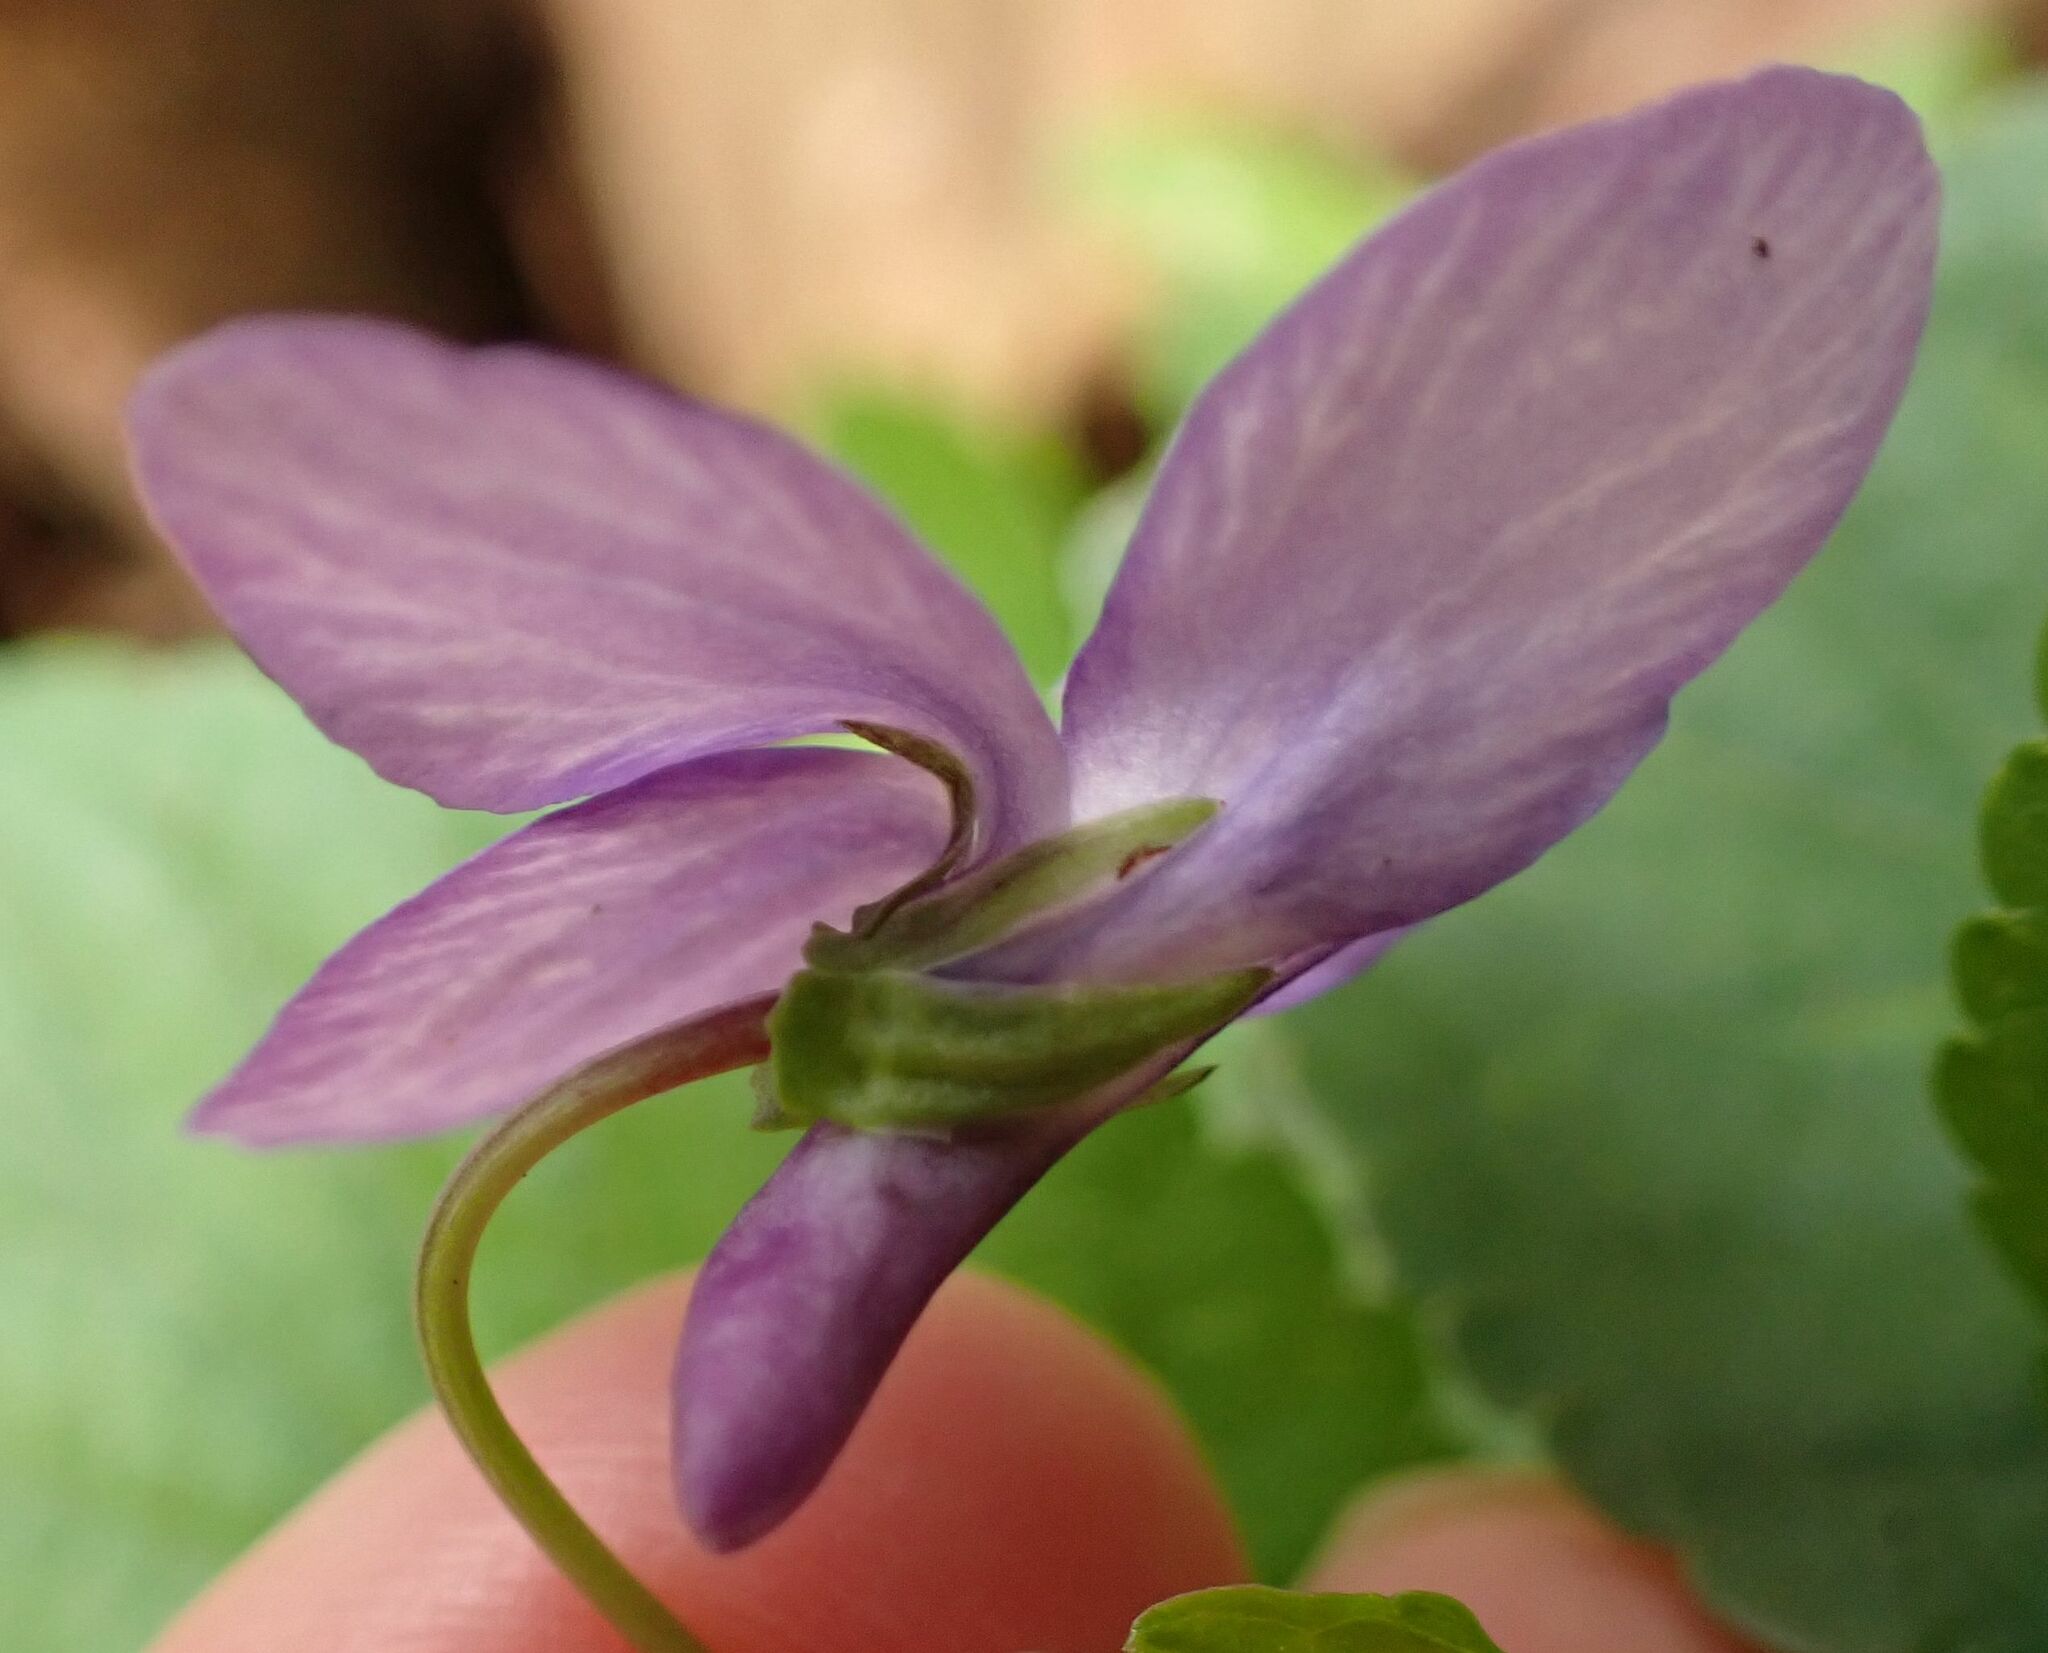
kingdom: Plantae
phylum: Tracheophyta
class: Magnoliopsida
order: Malpighiales
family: Violaceae
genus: Viola
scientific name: Viola reichenbachiana
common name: Early dog-violet
